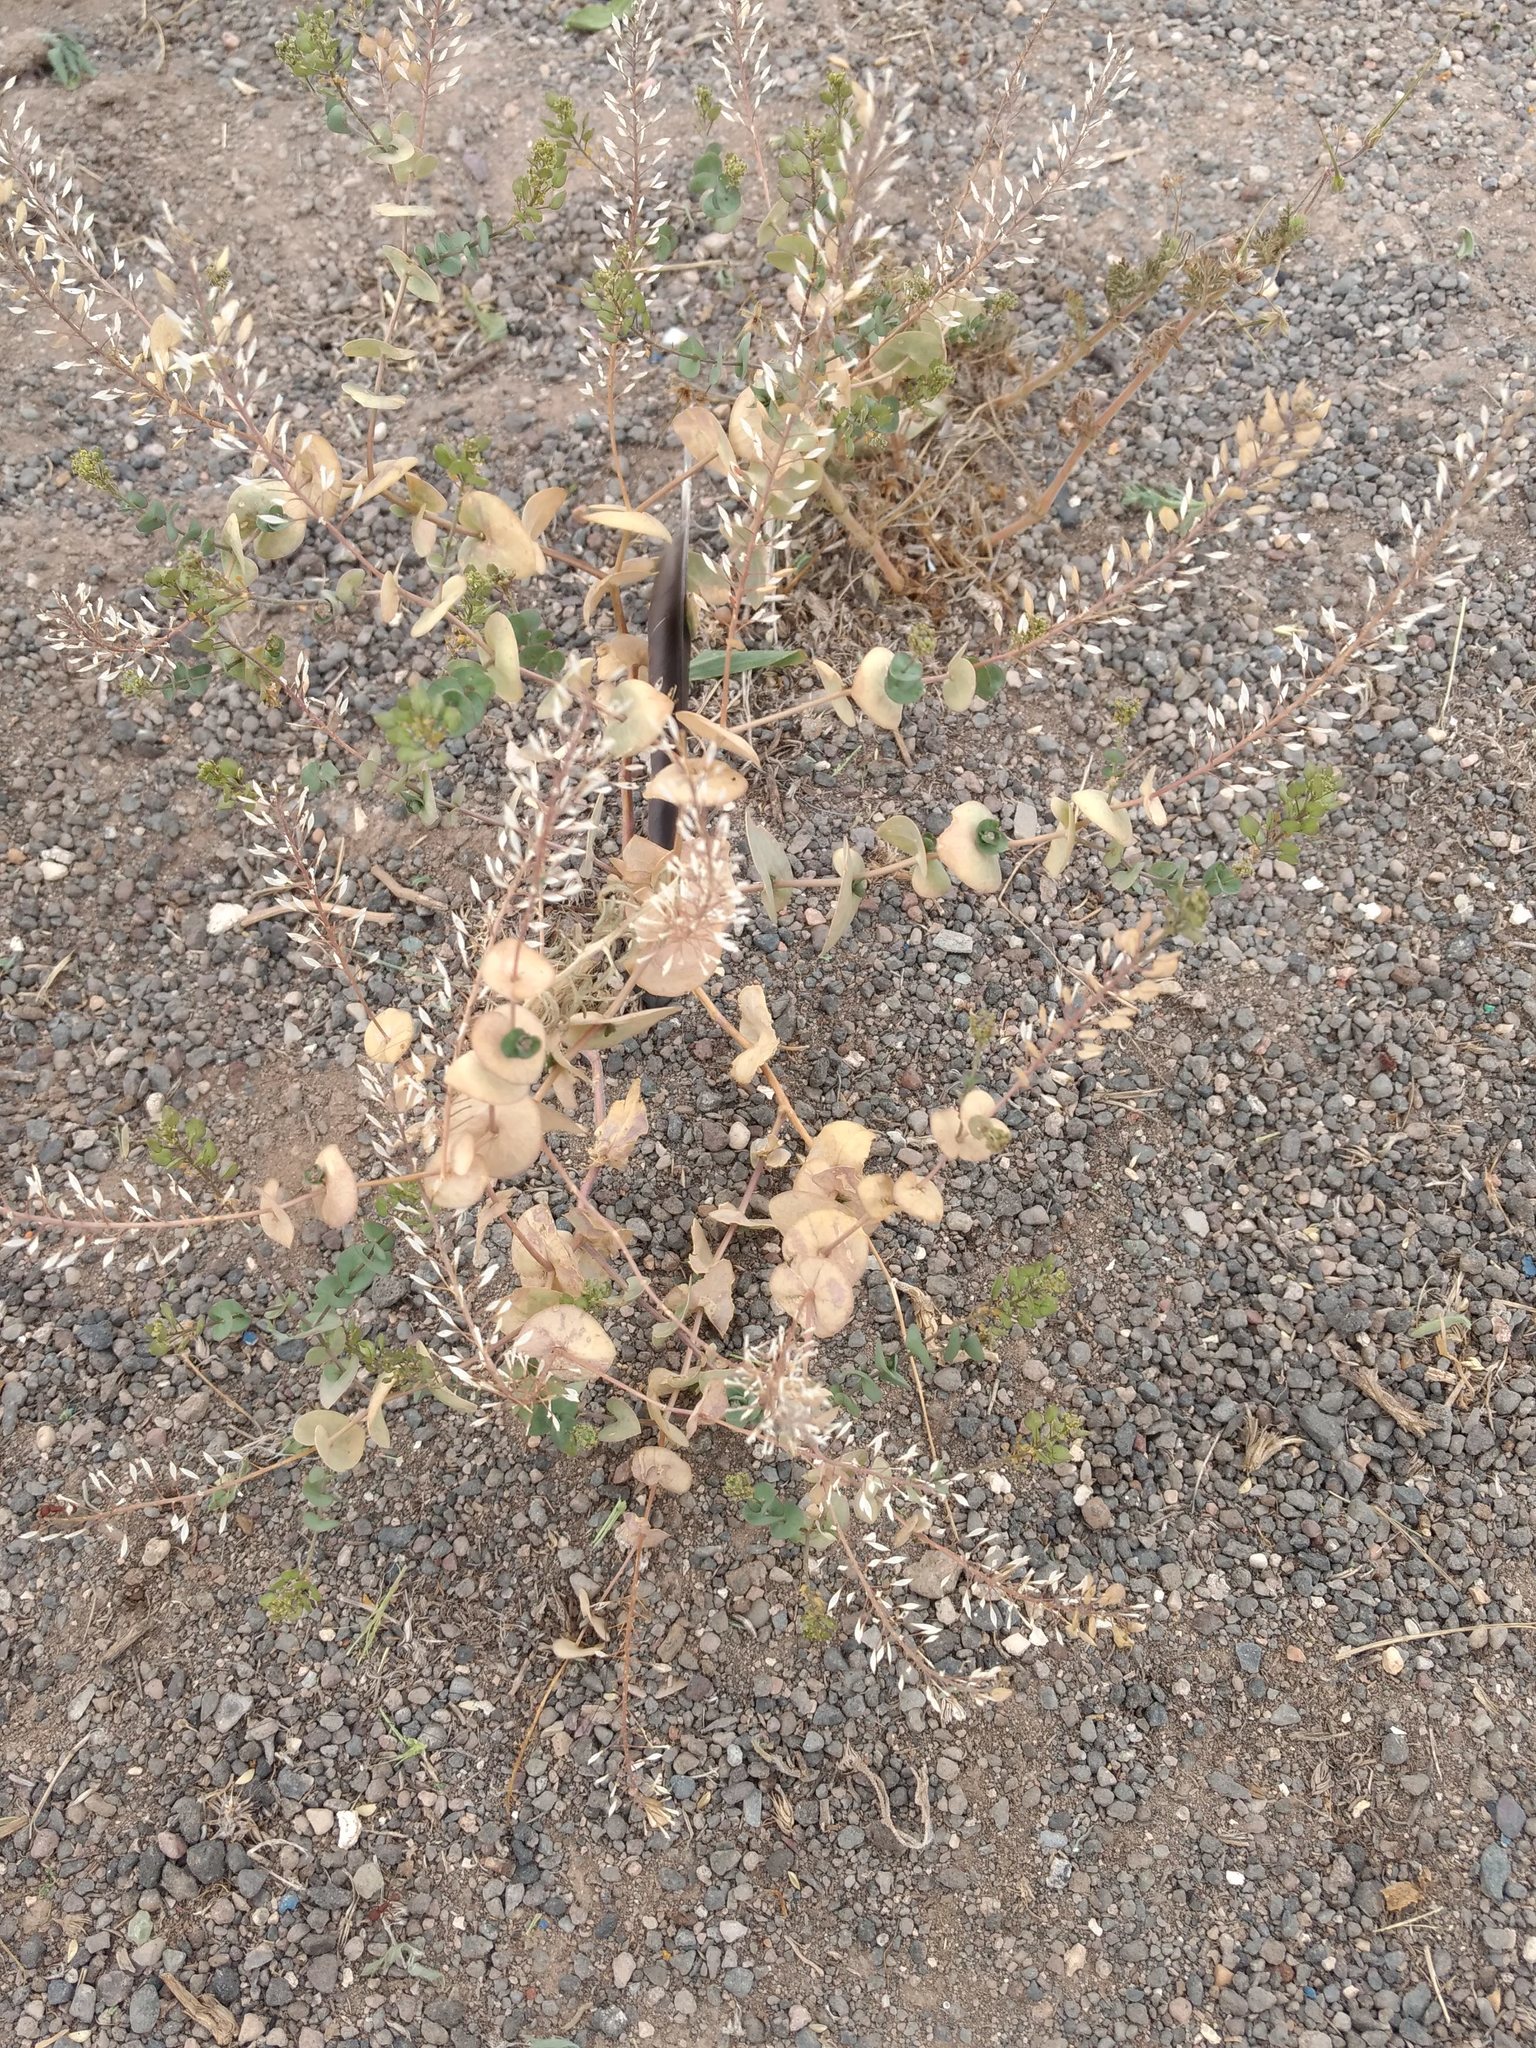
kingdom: Plantae
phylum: Tracheophyta
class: Magnoliopsida
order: Brassicales
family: Brassicaceae
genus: Lepidium
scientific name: Lepidium perfoliatum
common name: Perfoliate pepperwort
